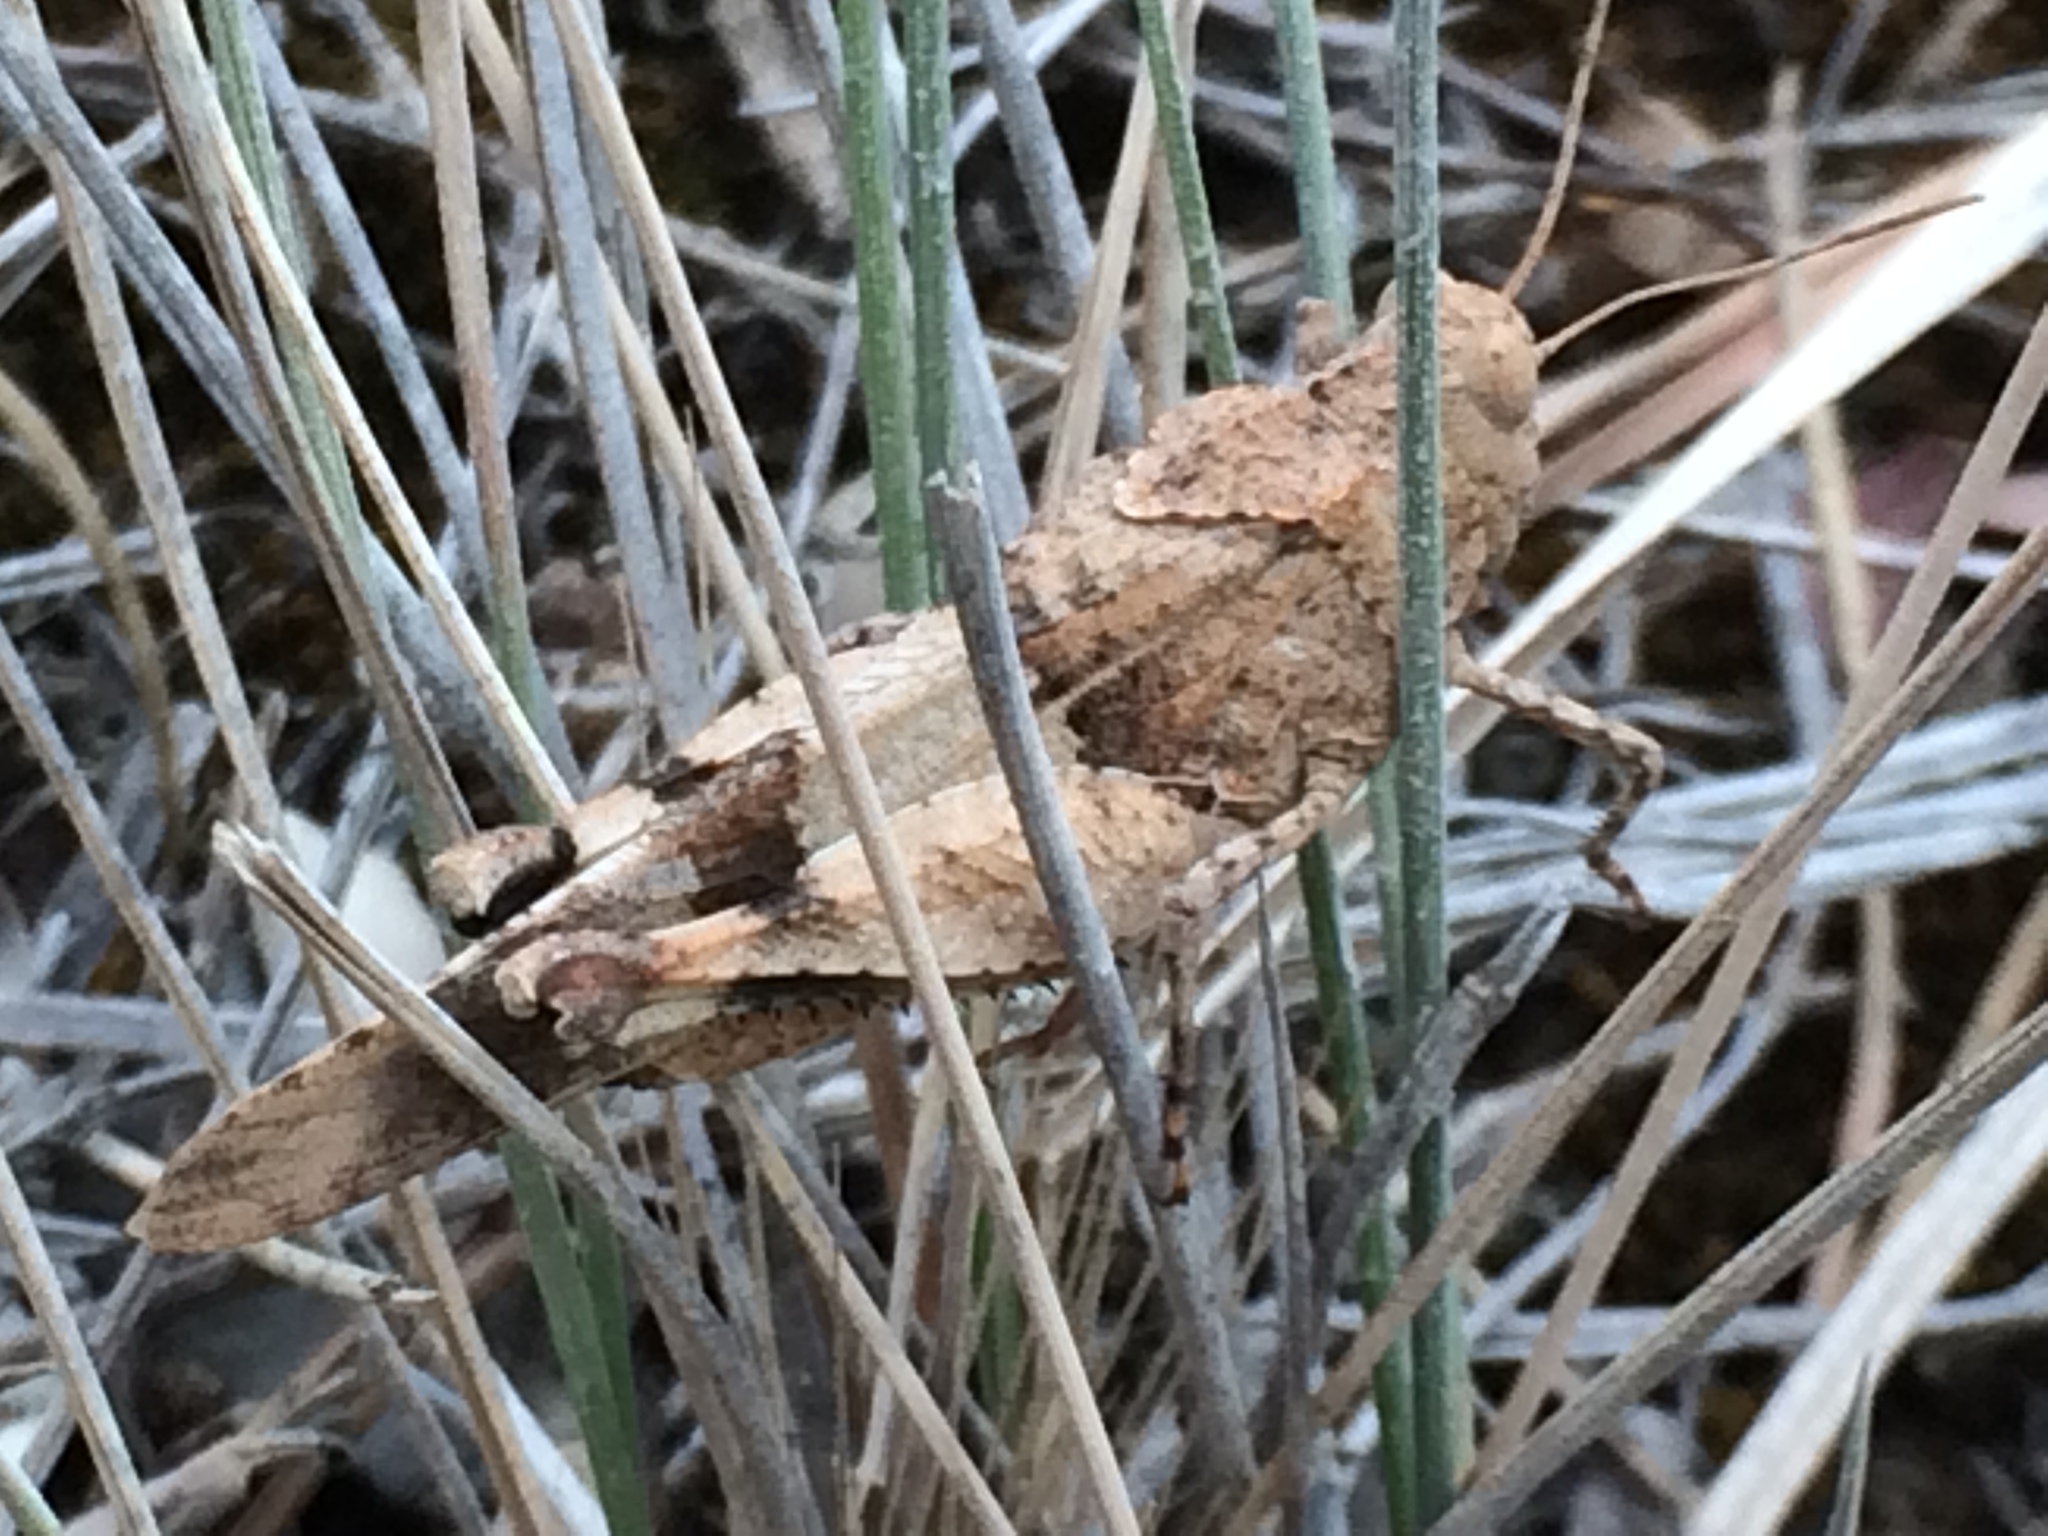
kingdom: Animalia
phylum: Arthropoda
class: Insecta
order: Orthoptera
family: Acrididae
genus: Oedipoda
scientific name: Oedipoda caerulescens
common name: Blue-winged grasshopper
